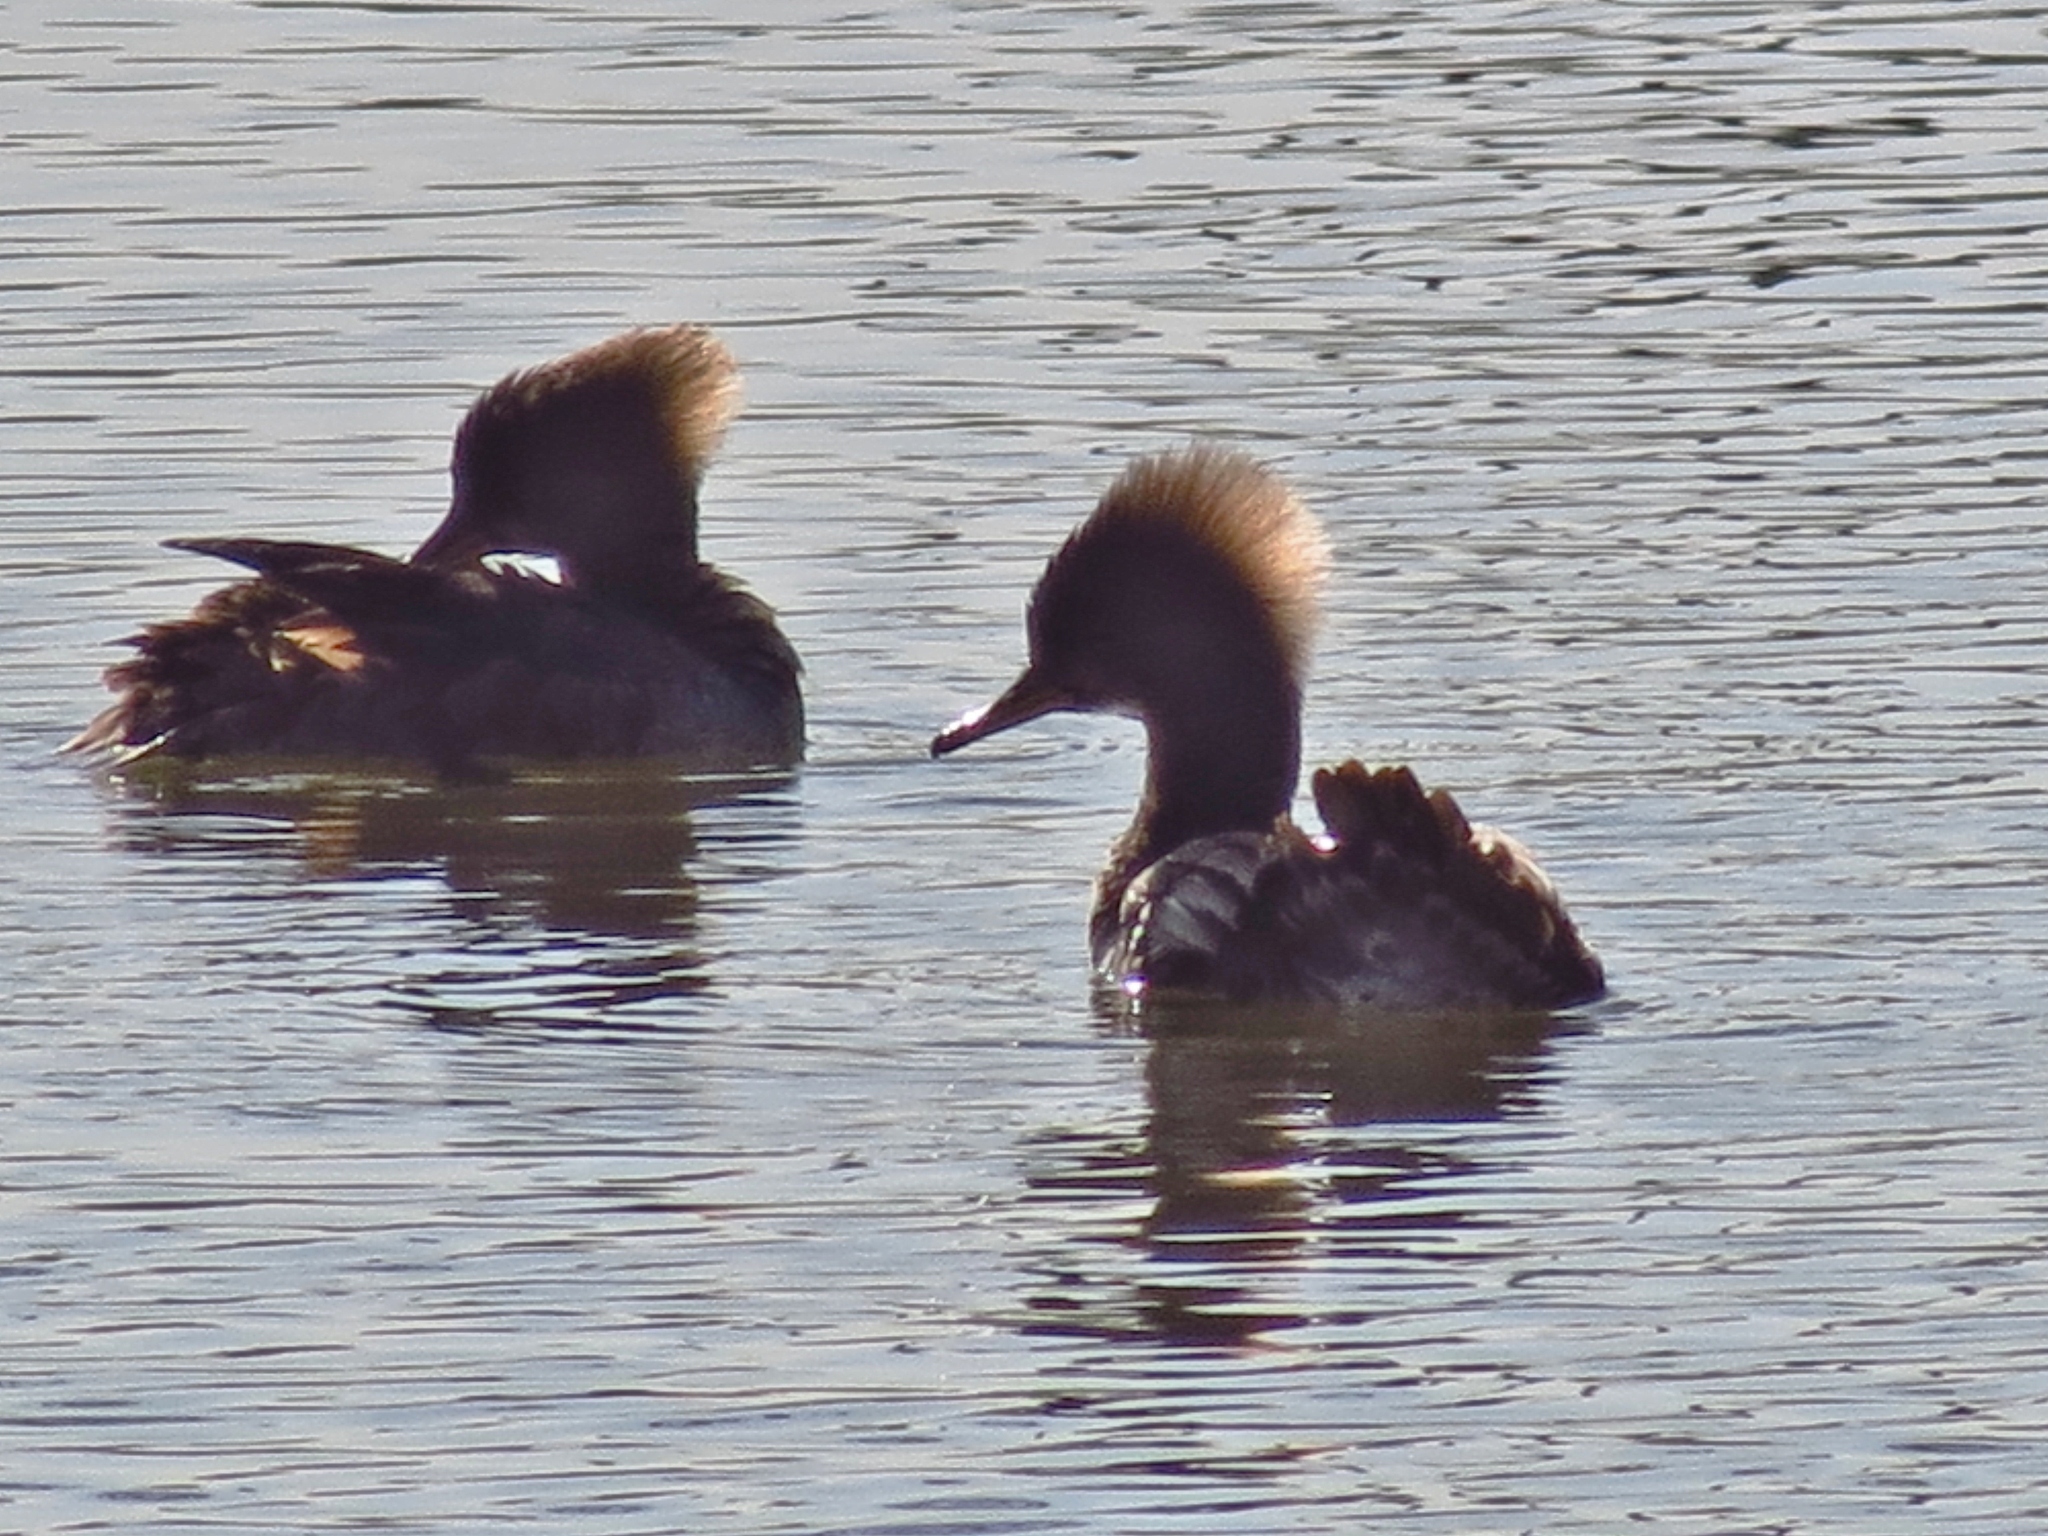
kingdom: Animalia
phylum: Chordata
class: Aves
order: Anseriformes
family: Anatidae
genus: Lophodytes
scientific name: Lophodytes cucullatus
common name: Hooded merganser
